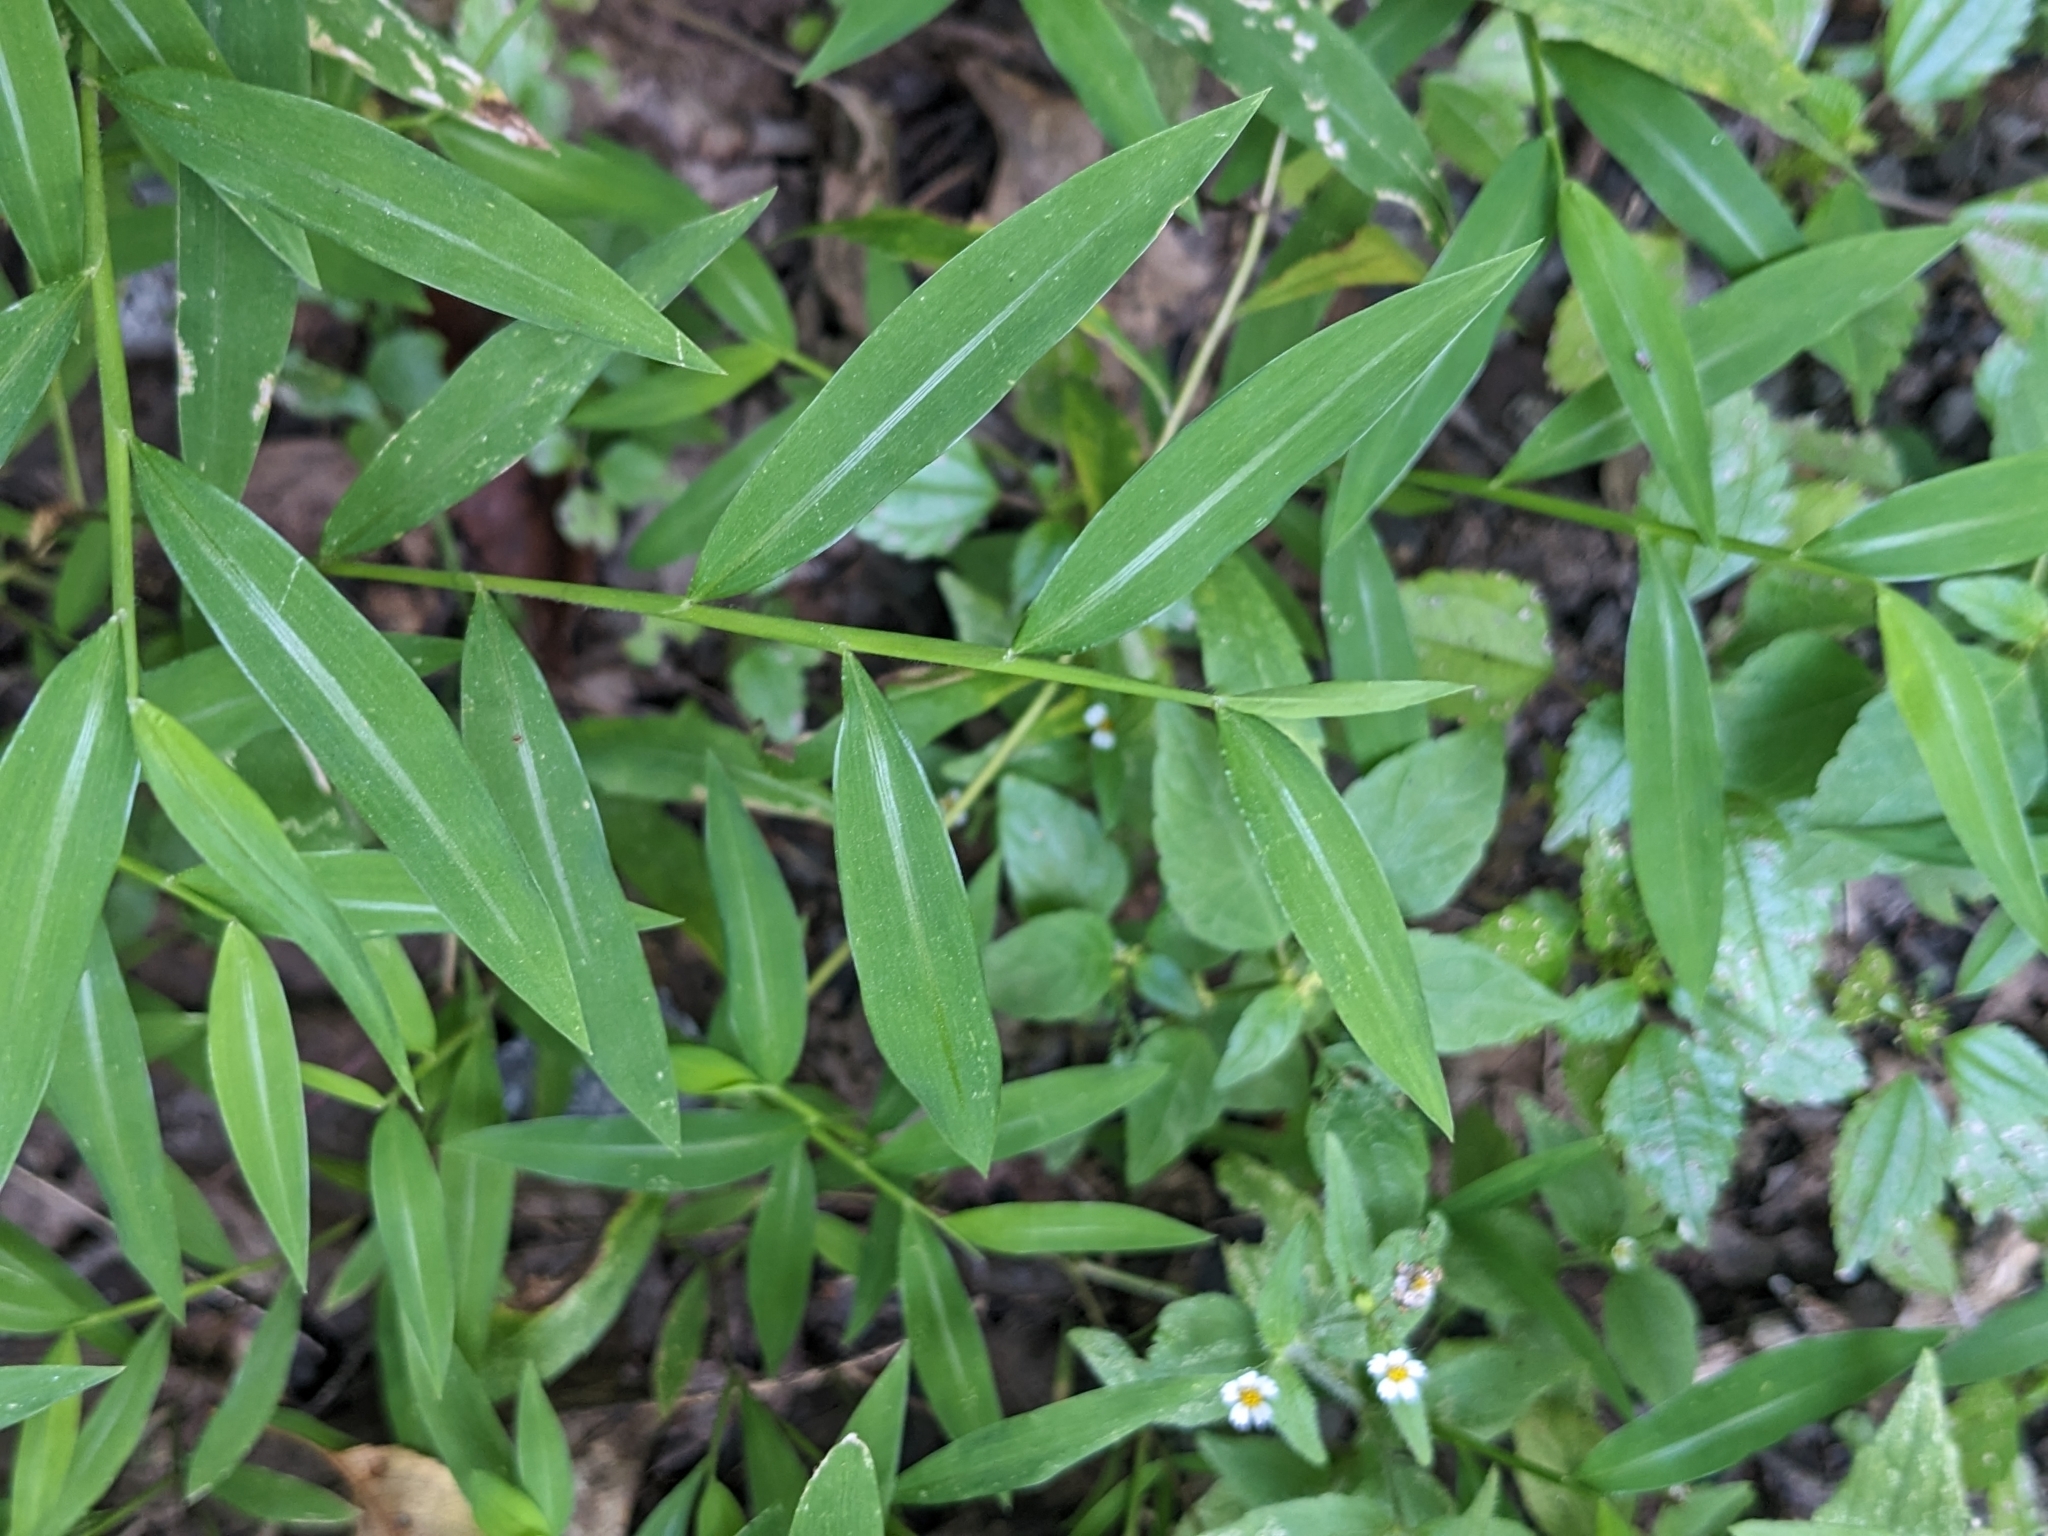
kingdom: Plantae
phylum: Tracheophyta
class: Liliopsida
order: Poales
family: Poaceae
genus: Microstegium
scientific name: Microstegium vimineum
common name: Japanese stiltgrass
